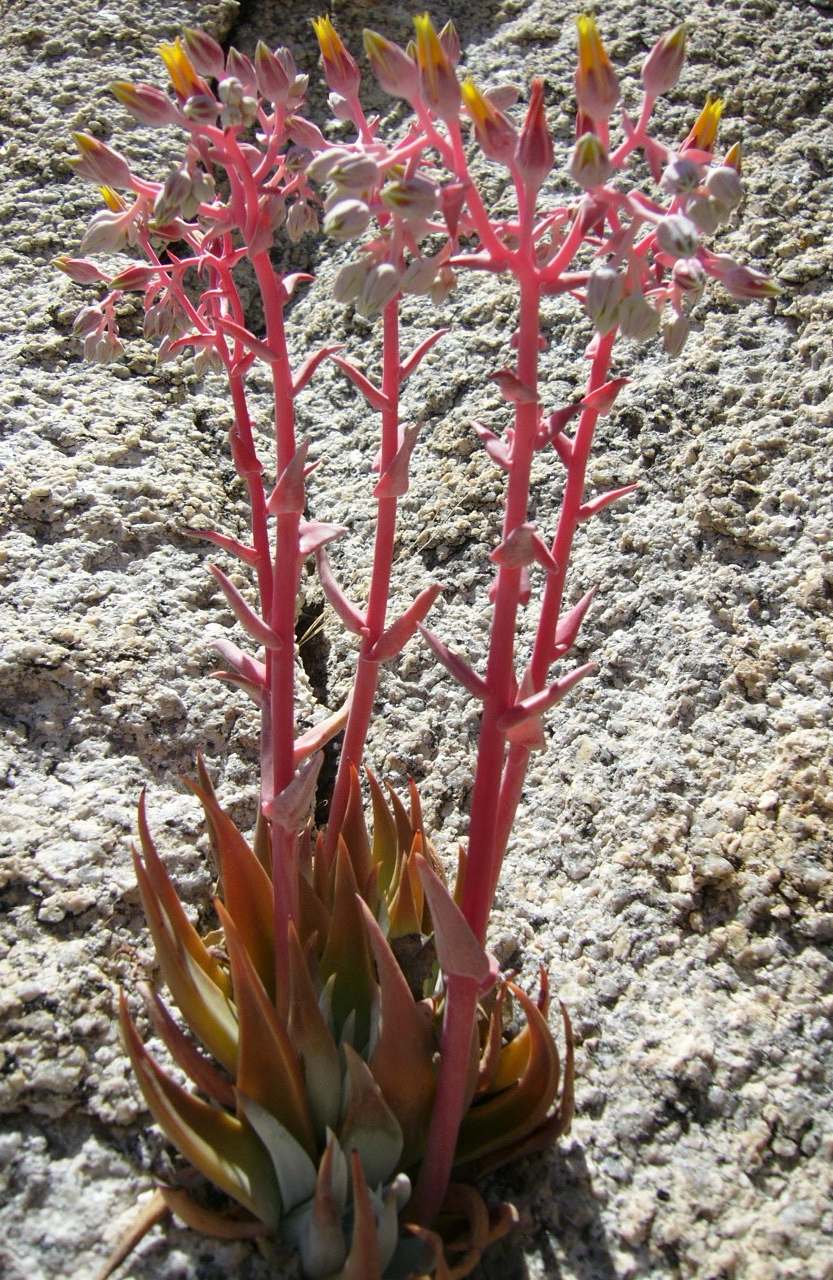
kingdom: Plantae
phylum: Tracheophyta
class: Magnoliopsida
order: Saxifragales
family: Crassulaceae
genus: Dudleya
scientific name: Dudleya saxosa
